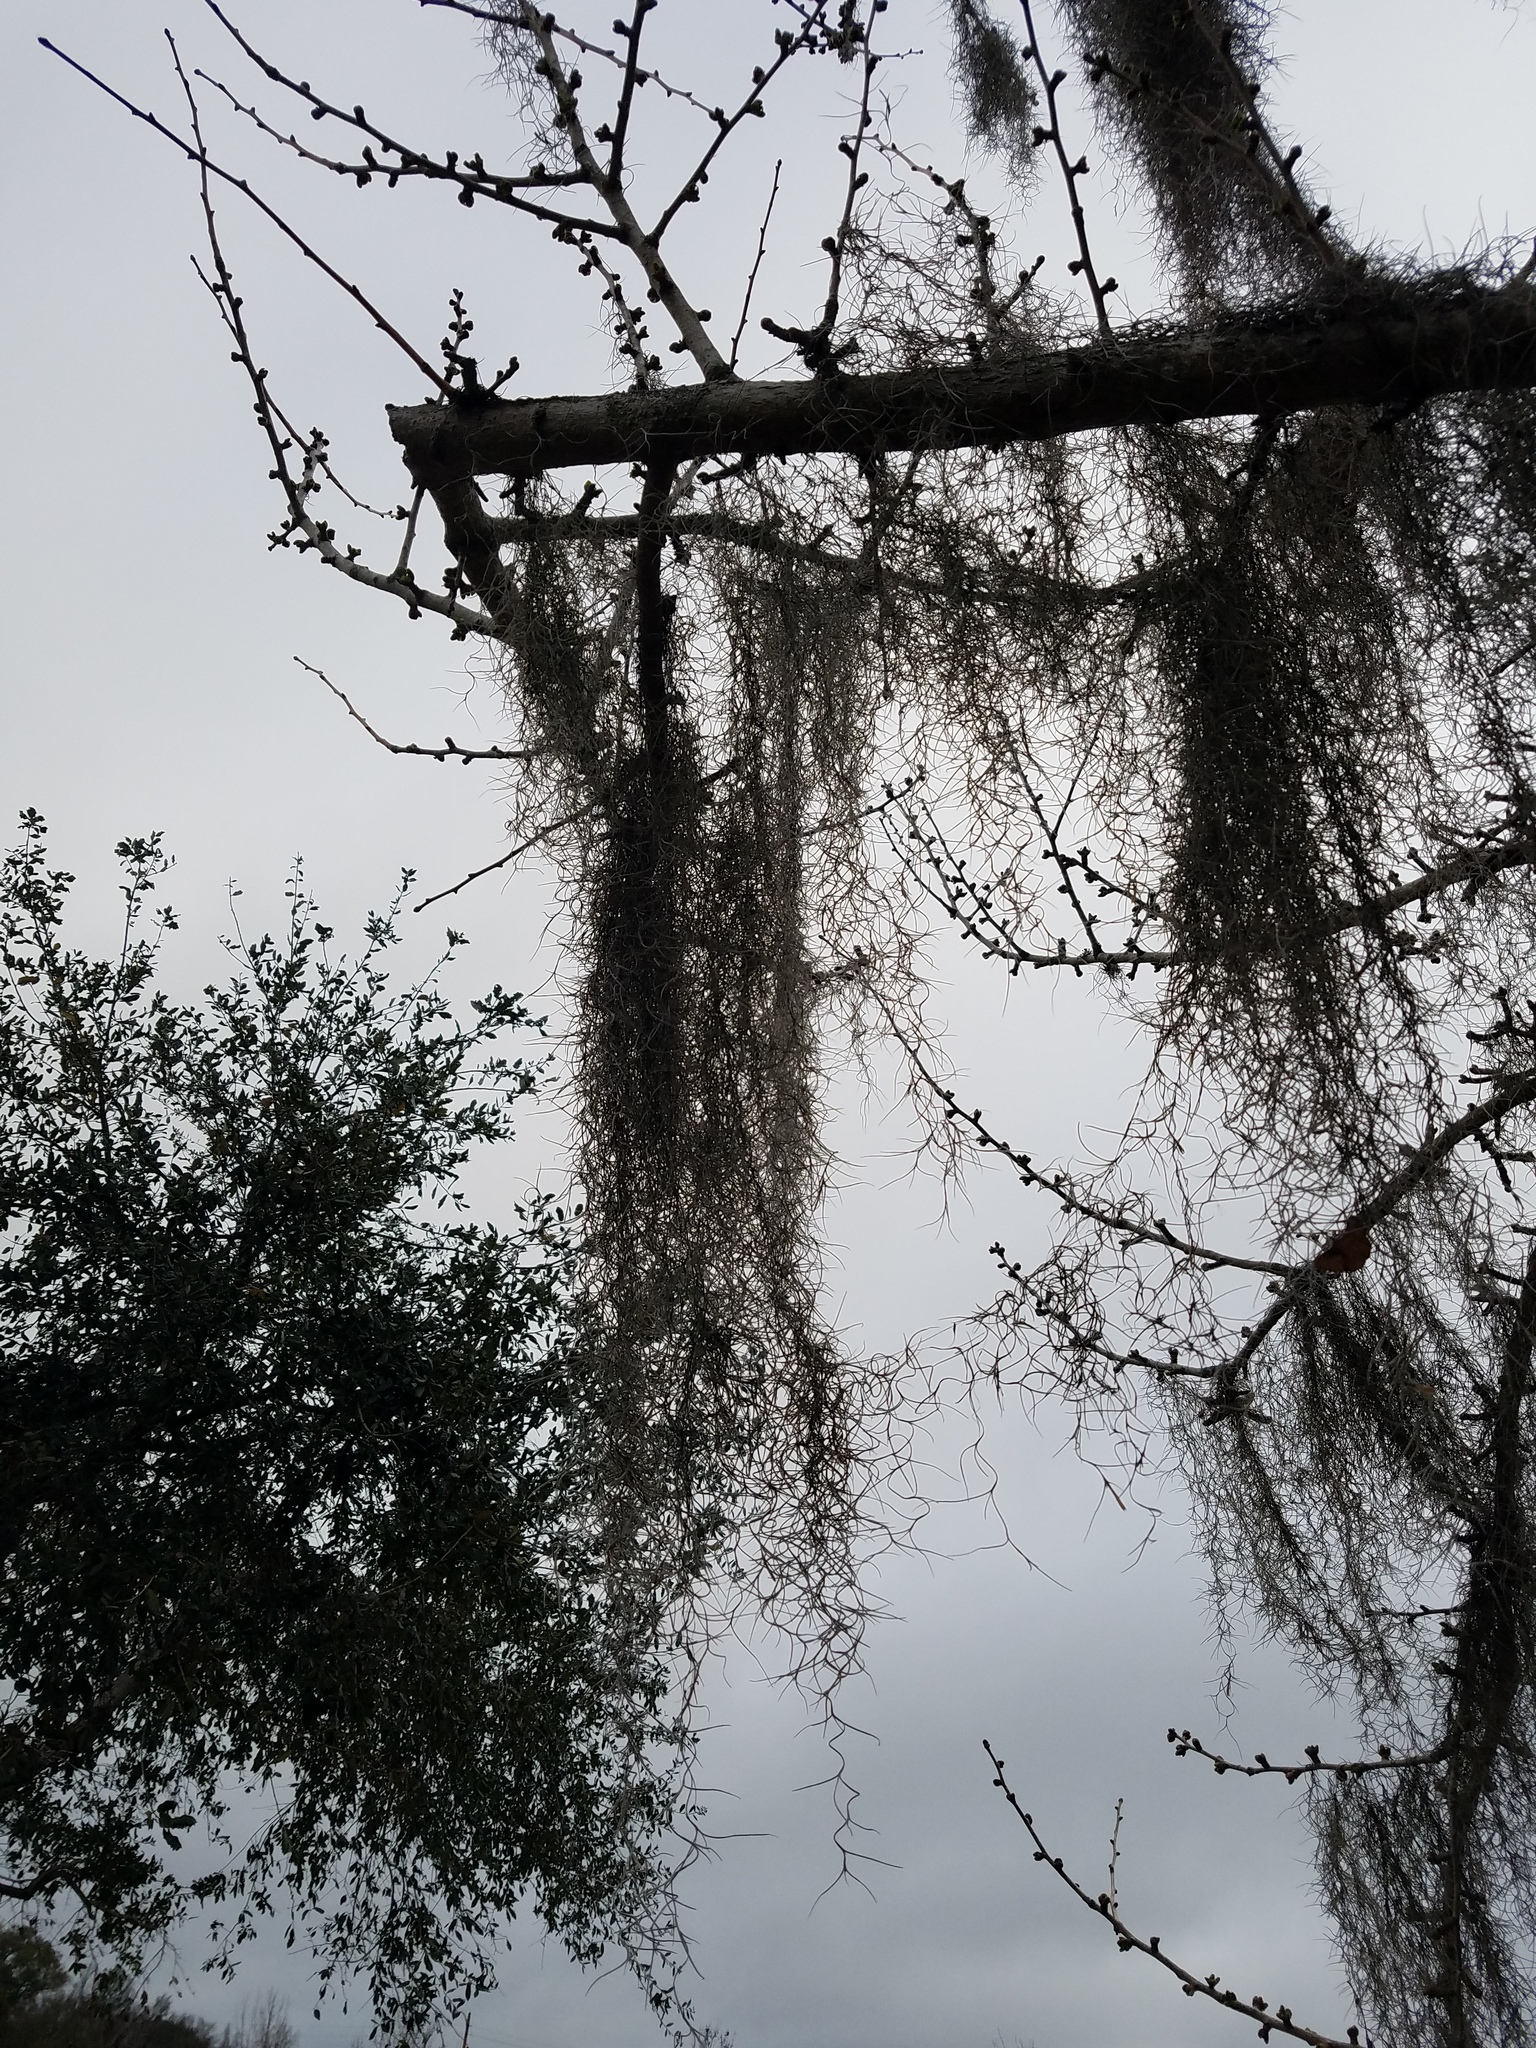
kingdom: Plantae
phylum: Tracheophyta
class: Liliopsida
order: Poales
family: Bromeliaceae
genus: Tillandsia
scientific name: Tillandsia usneoides
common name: Spanish moss
